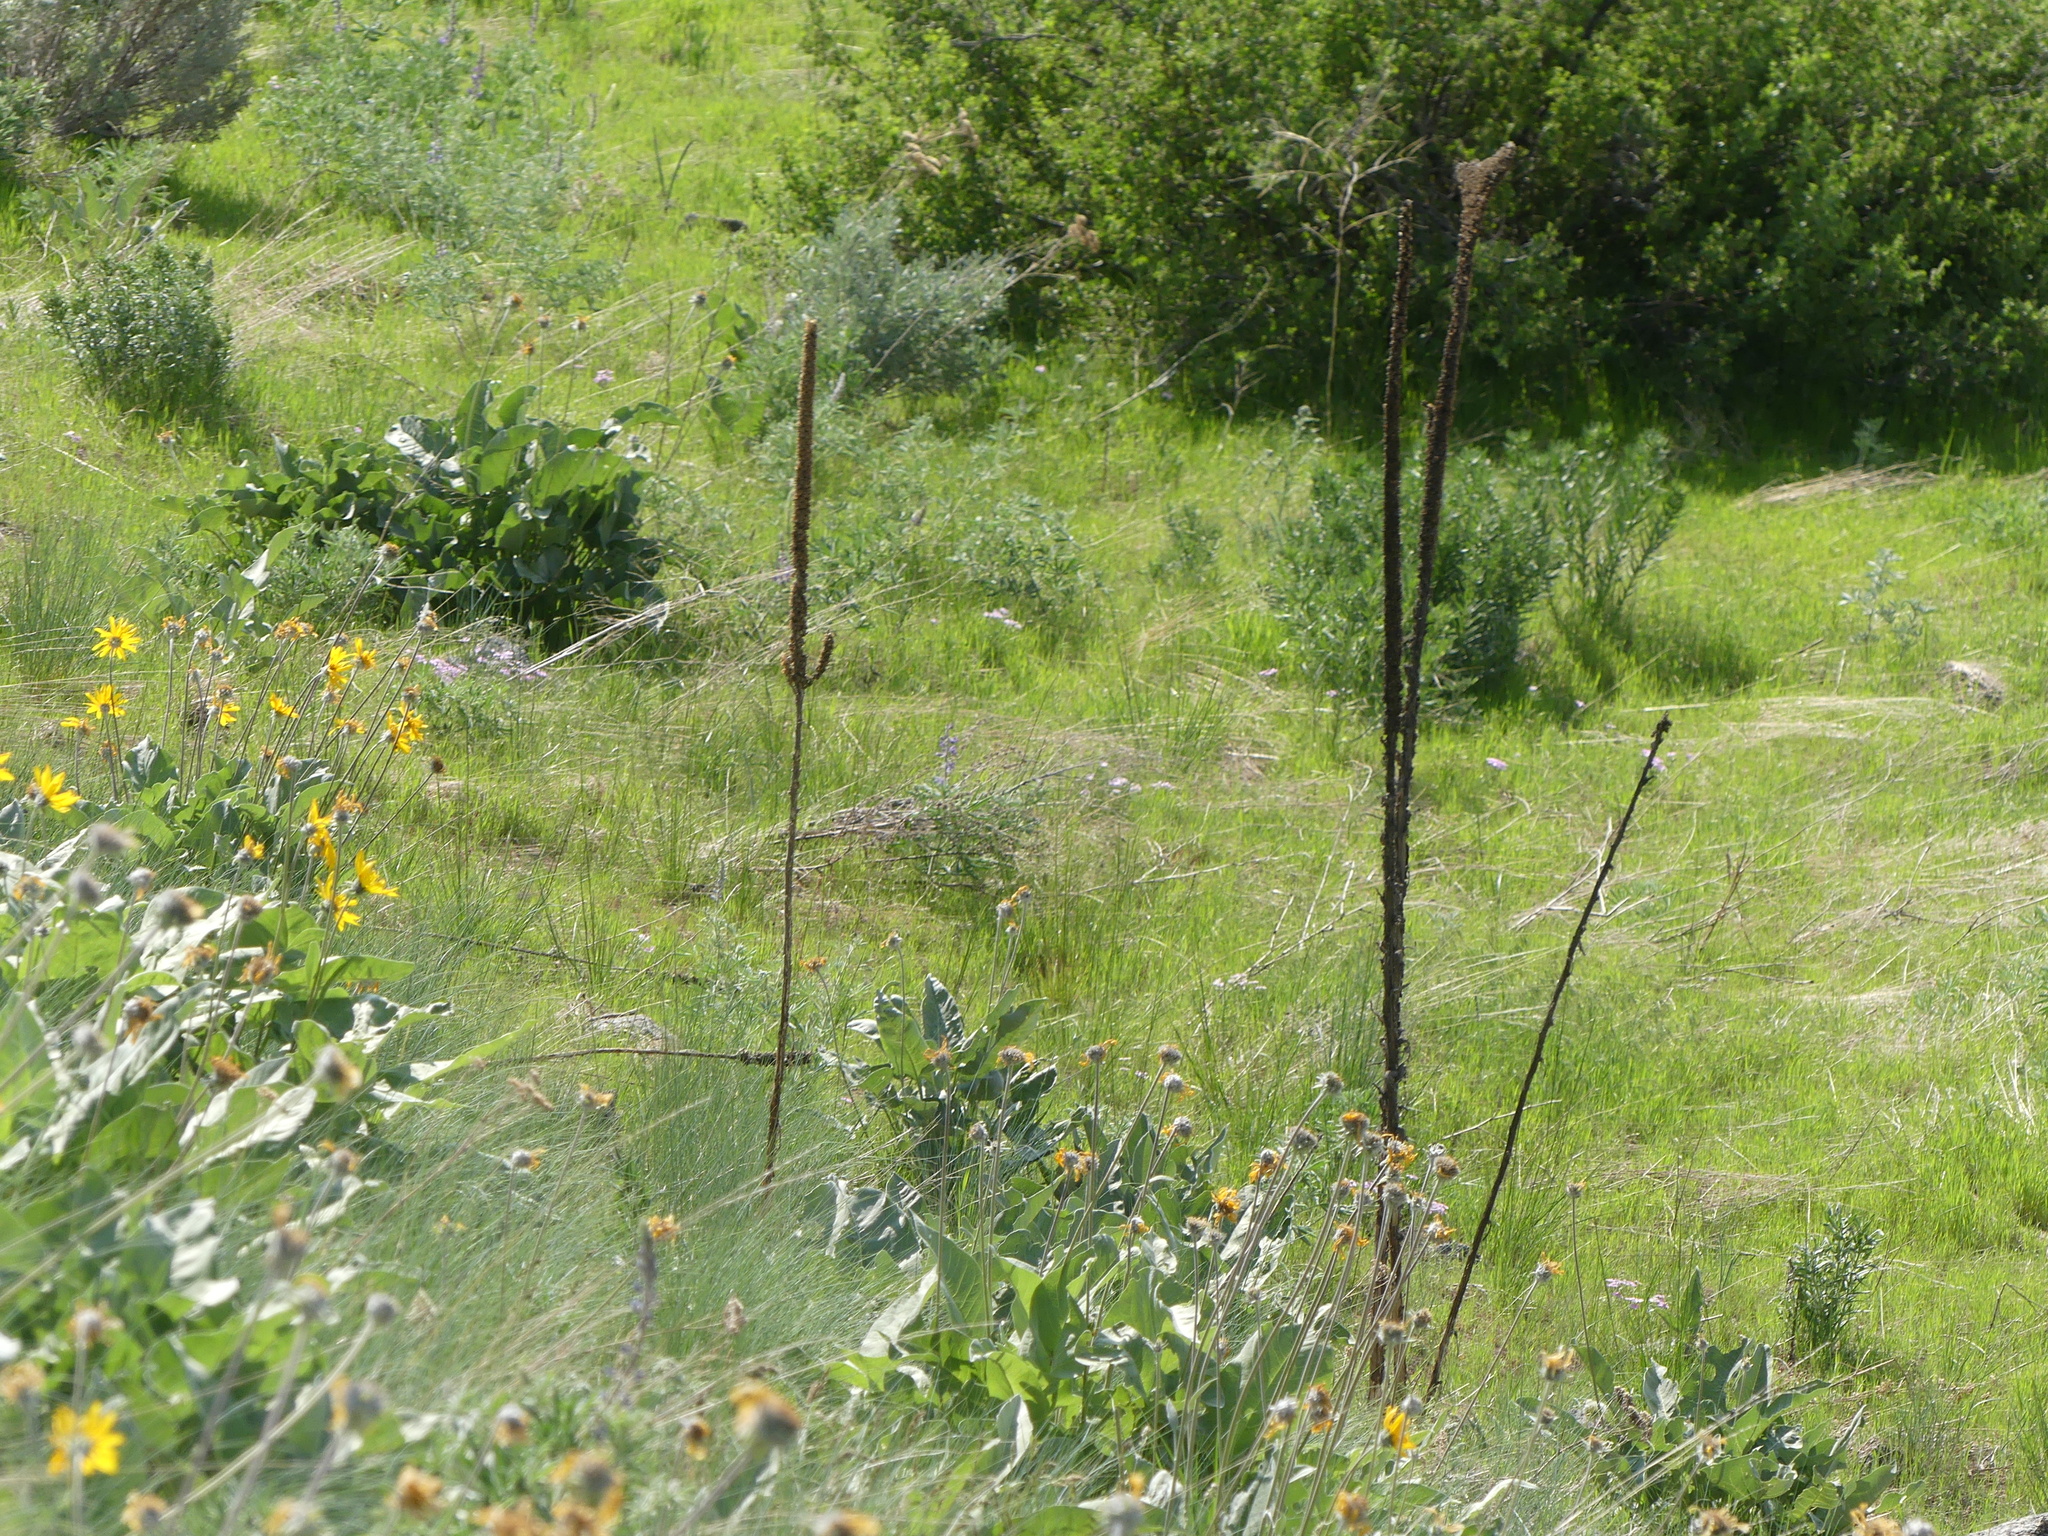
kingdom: Plantae
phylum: Tracheophyta
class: Magnoliopsida
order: Lamiales
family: Scrophulariaceae
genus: Verbascum
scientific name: Verbascum thapsus
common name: Common mullein
